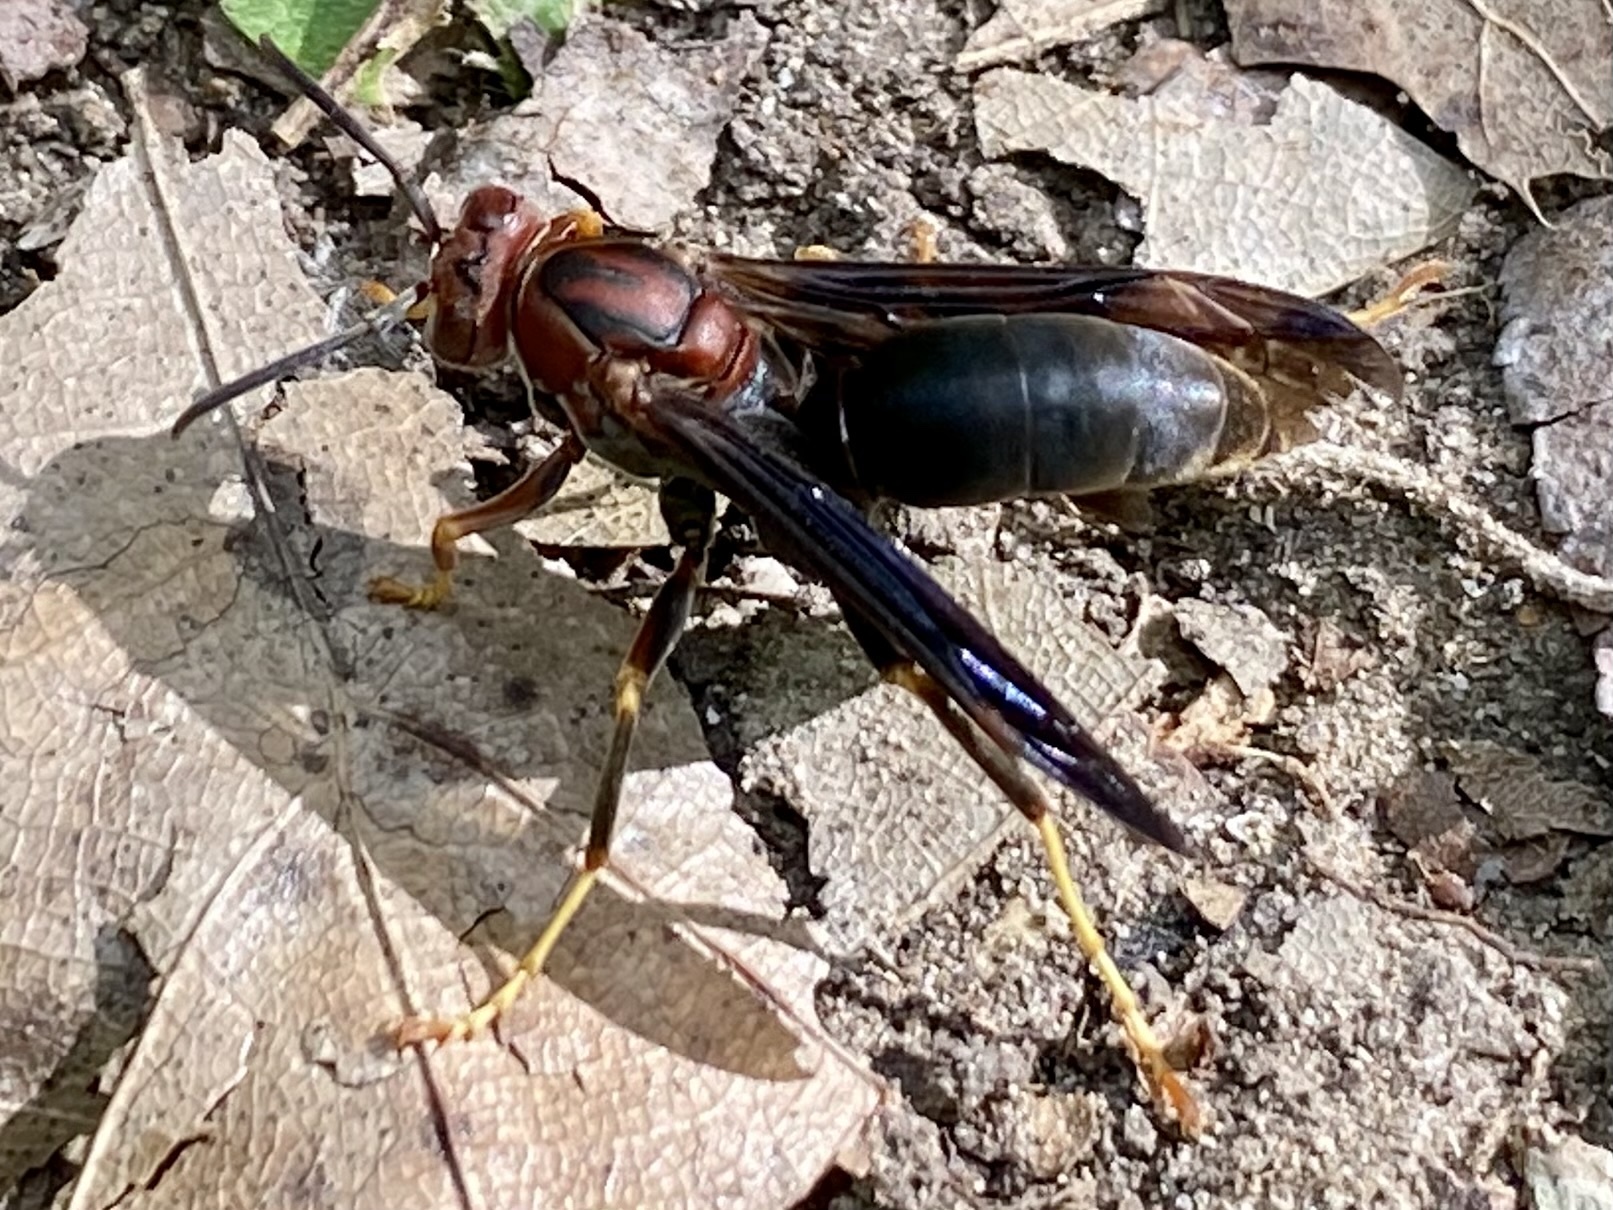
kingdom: Animalia
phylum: Arthropoda
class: Insecta
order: Hymenoptera
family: Eumenidae
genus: Polistes
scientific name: Polistes metricus
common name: Metric paper wasp
